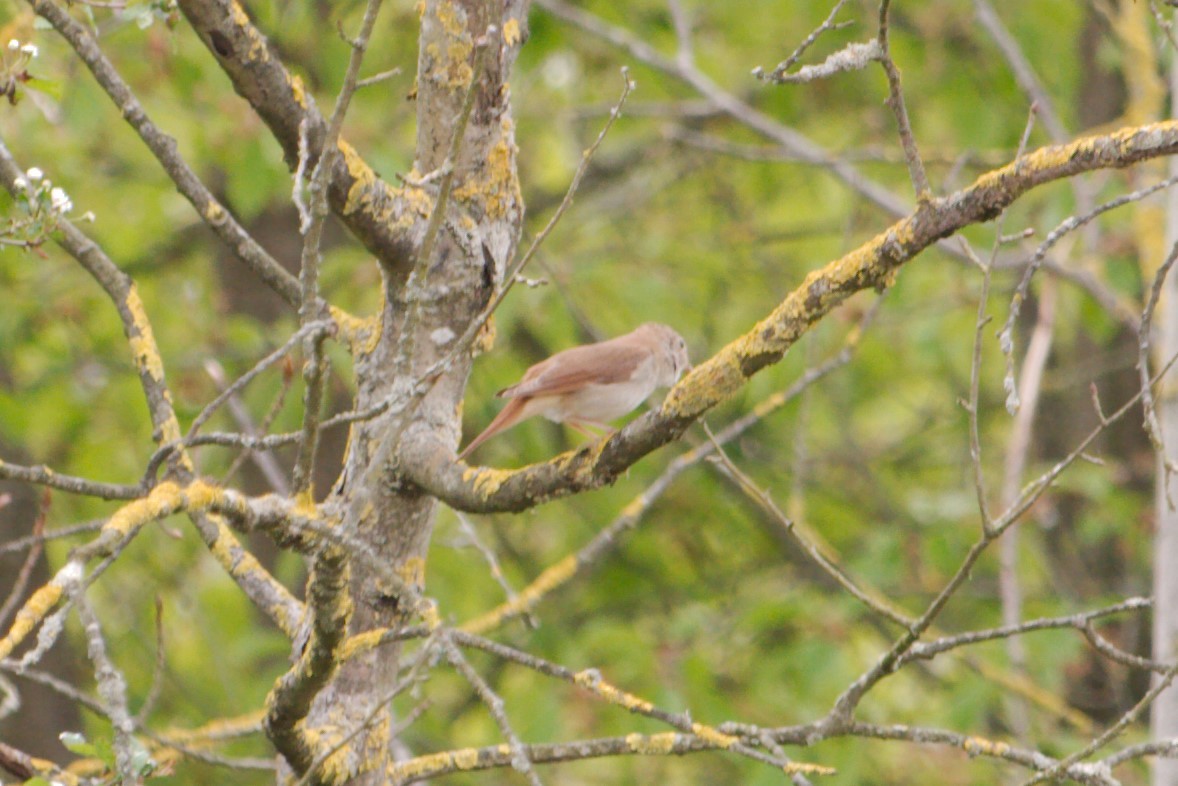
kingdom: Animalia
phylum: Chordata
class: Aves
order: Passeriformes
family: Muscicapidae
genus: Luscinia
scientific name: Luscinia megarhynchos
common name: Common nightingale
